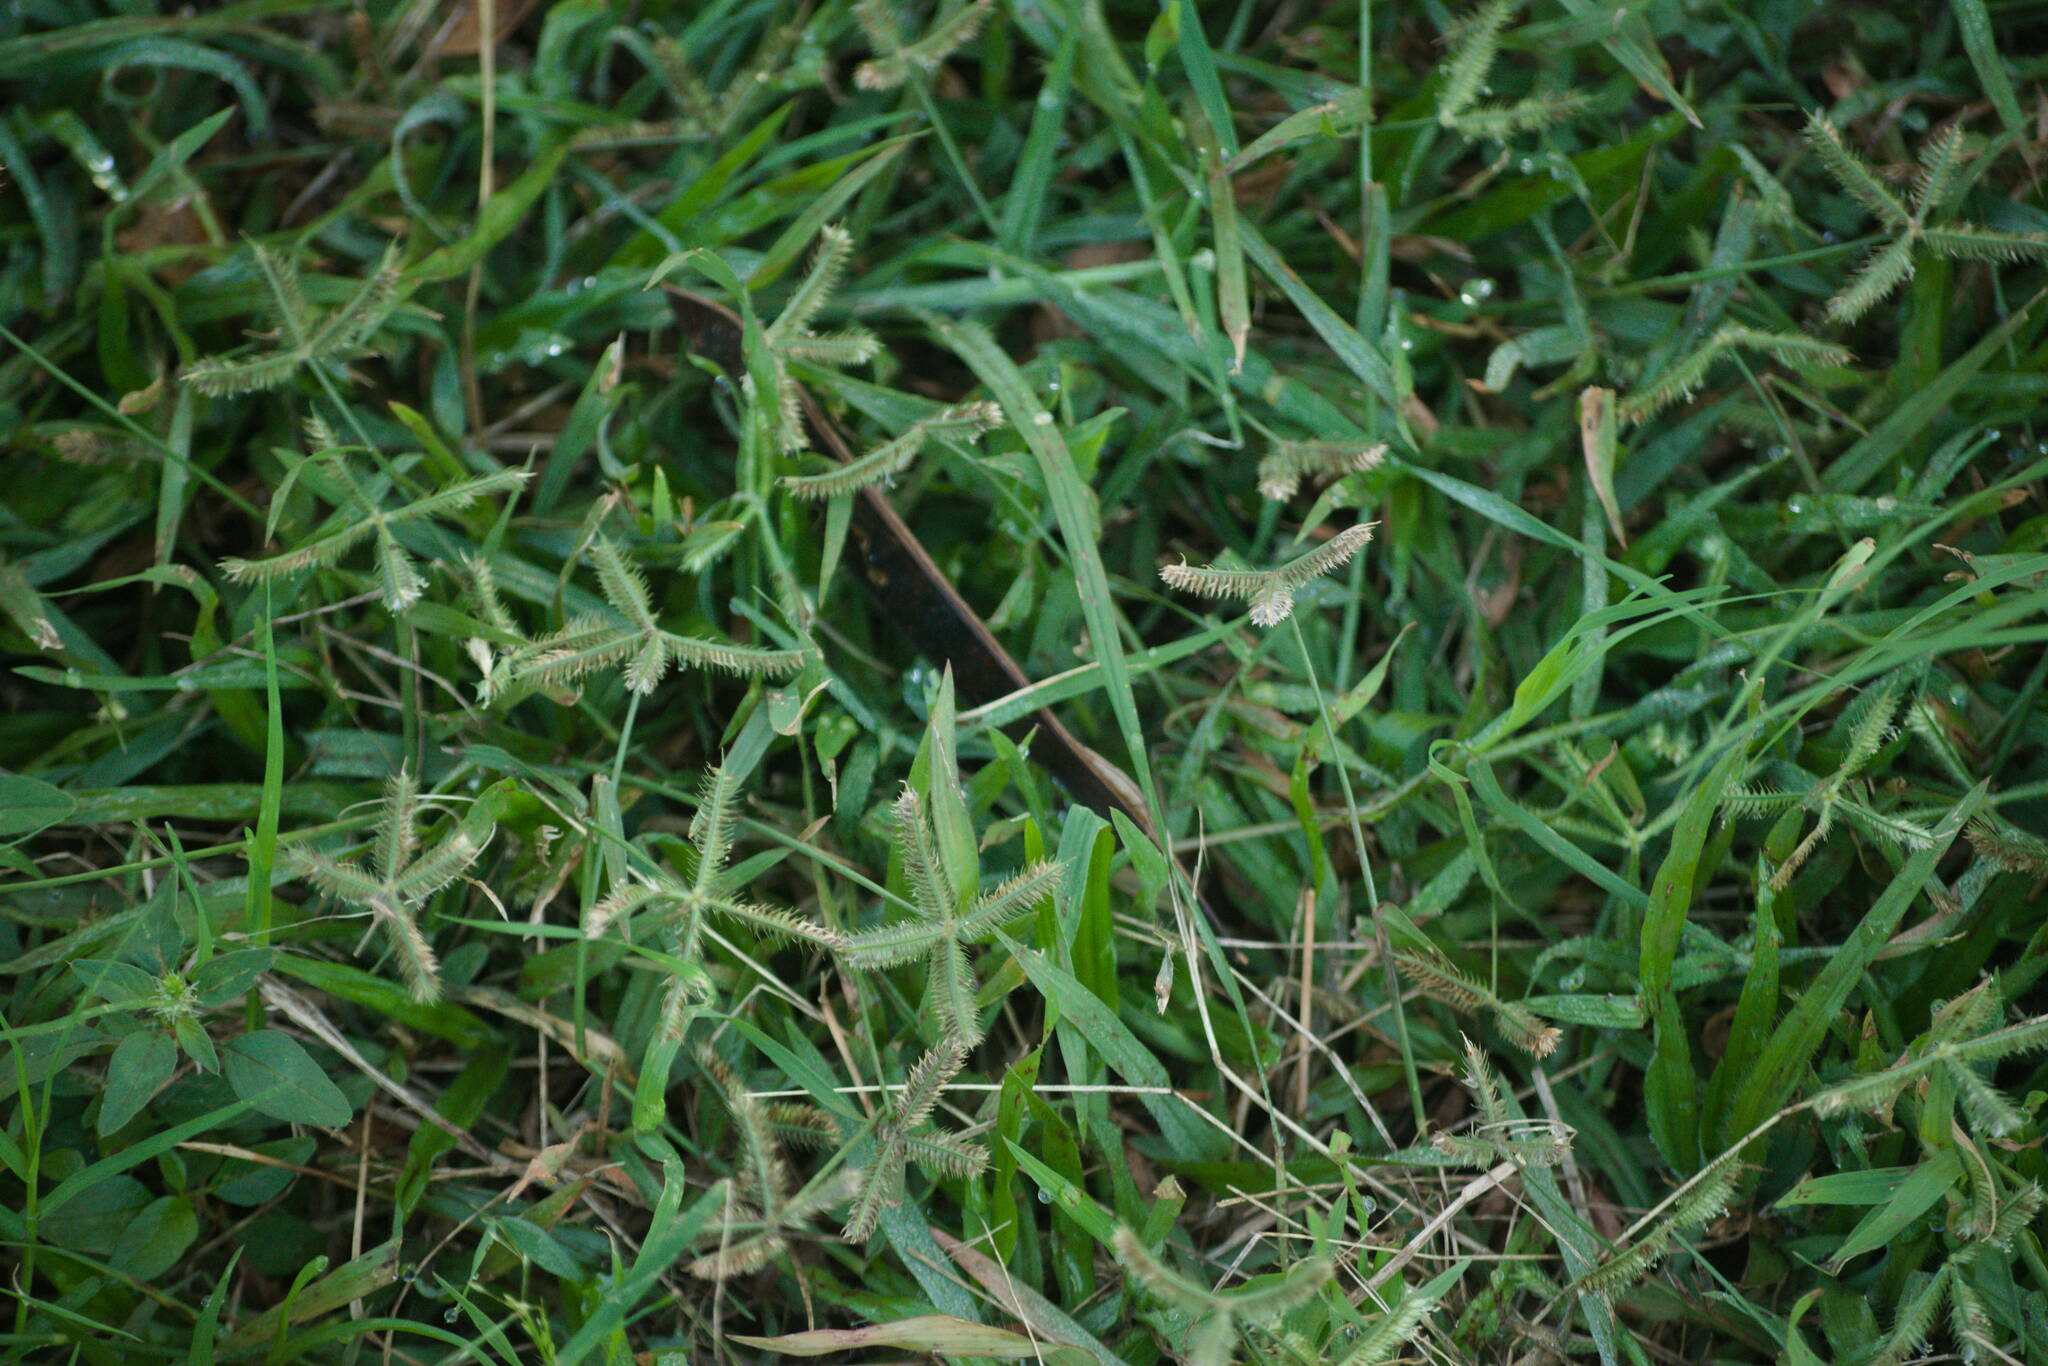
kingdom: Plantae
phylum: Tracheophyta
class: Liliopsida
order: Poales
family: Poaceae
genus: Dactyloctenium
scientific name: Dactyloctenium aegyptium
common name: Egyptian grass
